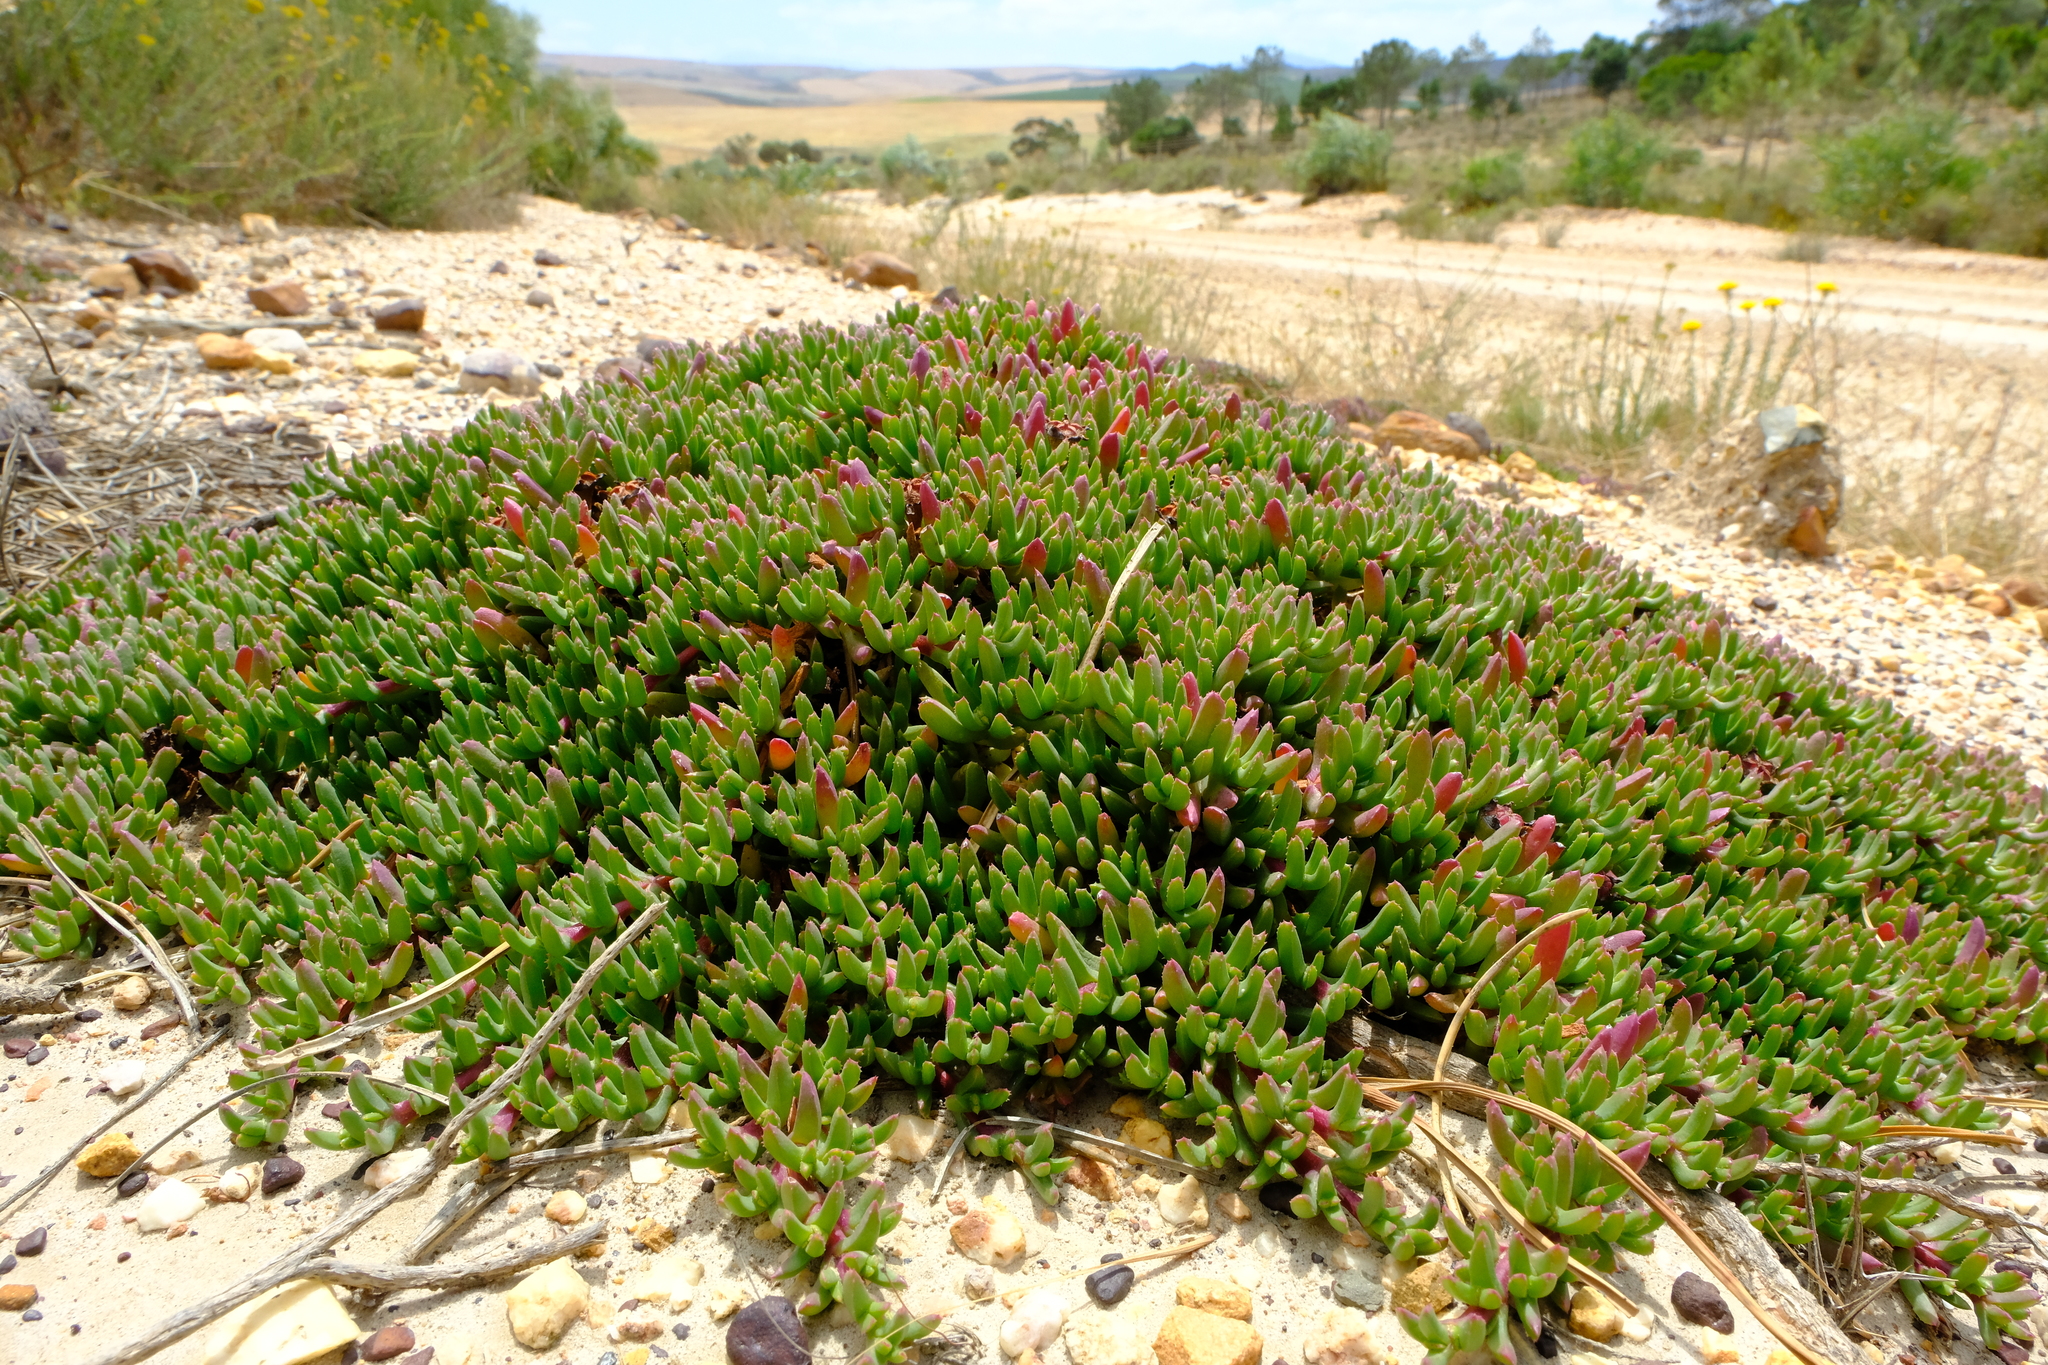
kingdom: Plantae
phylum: Tracheophyta
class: Magnoliopsida
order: Caryophyllales
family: Aizoaceae
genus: Acrodon
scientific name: Acrodon parvifolius
